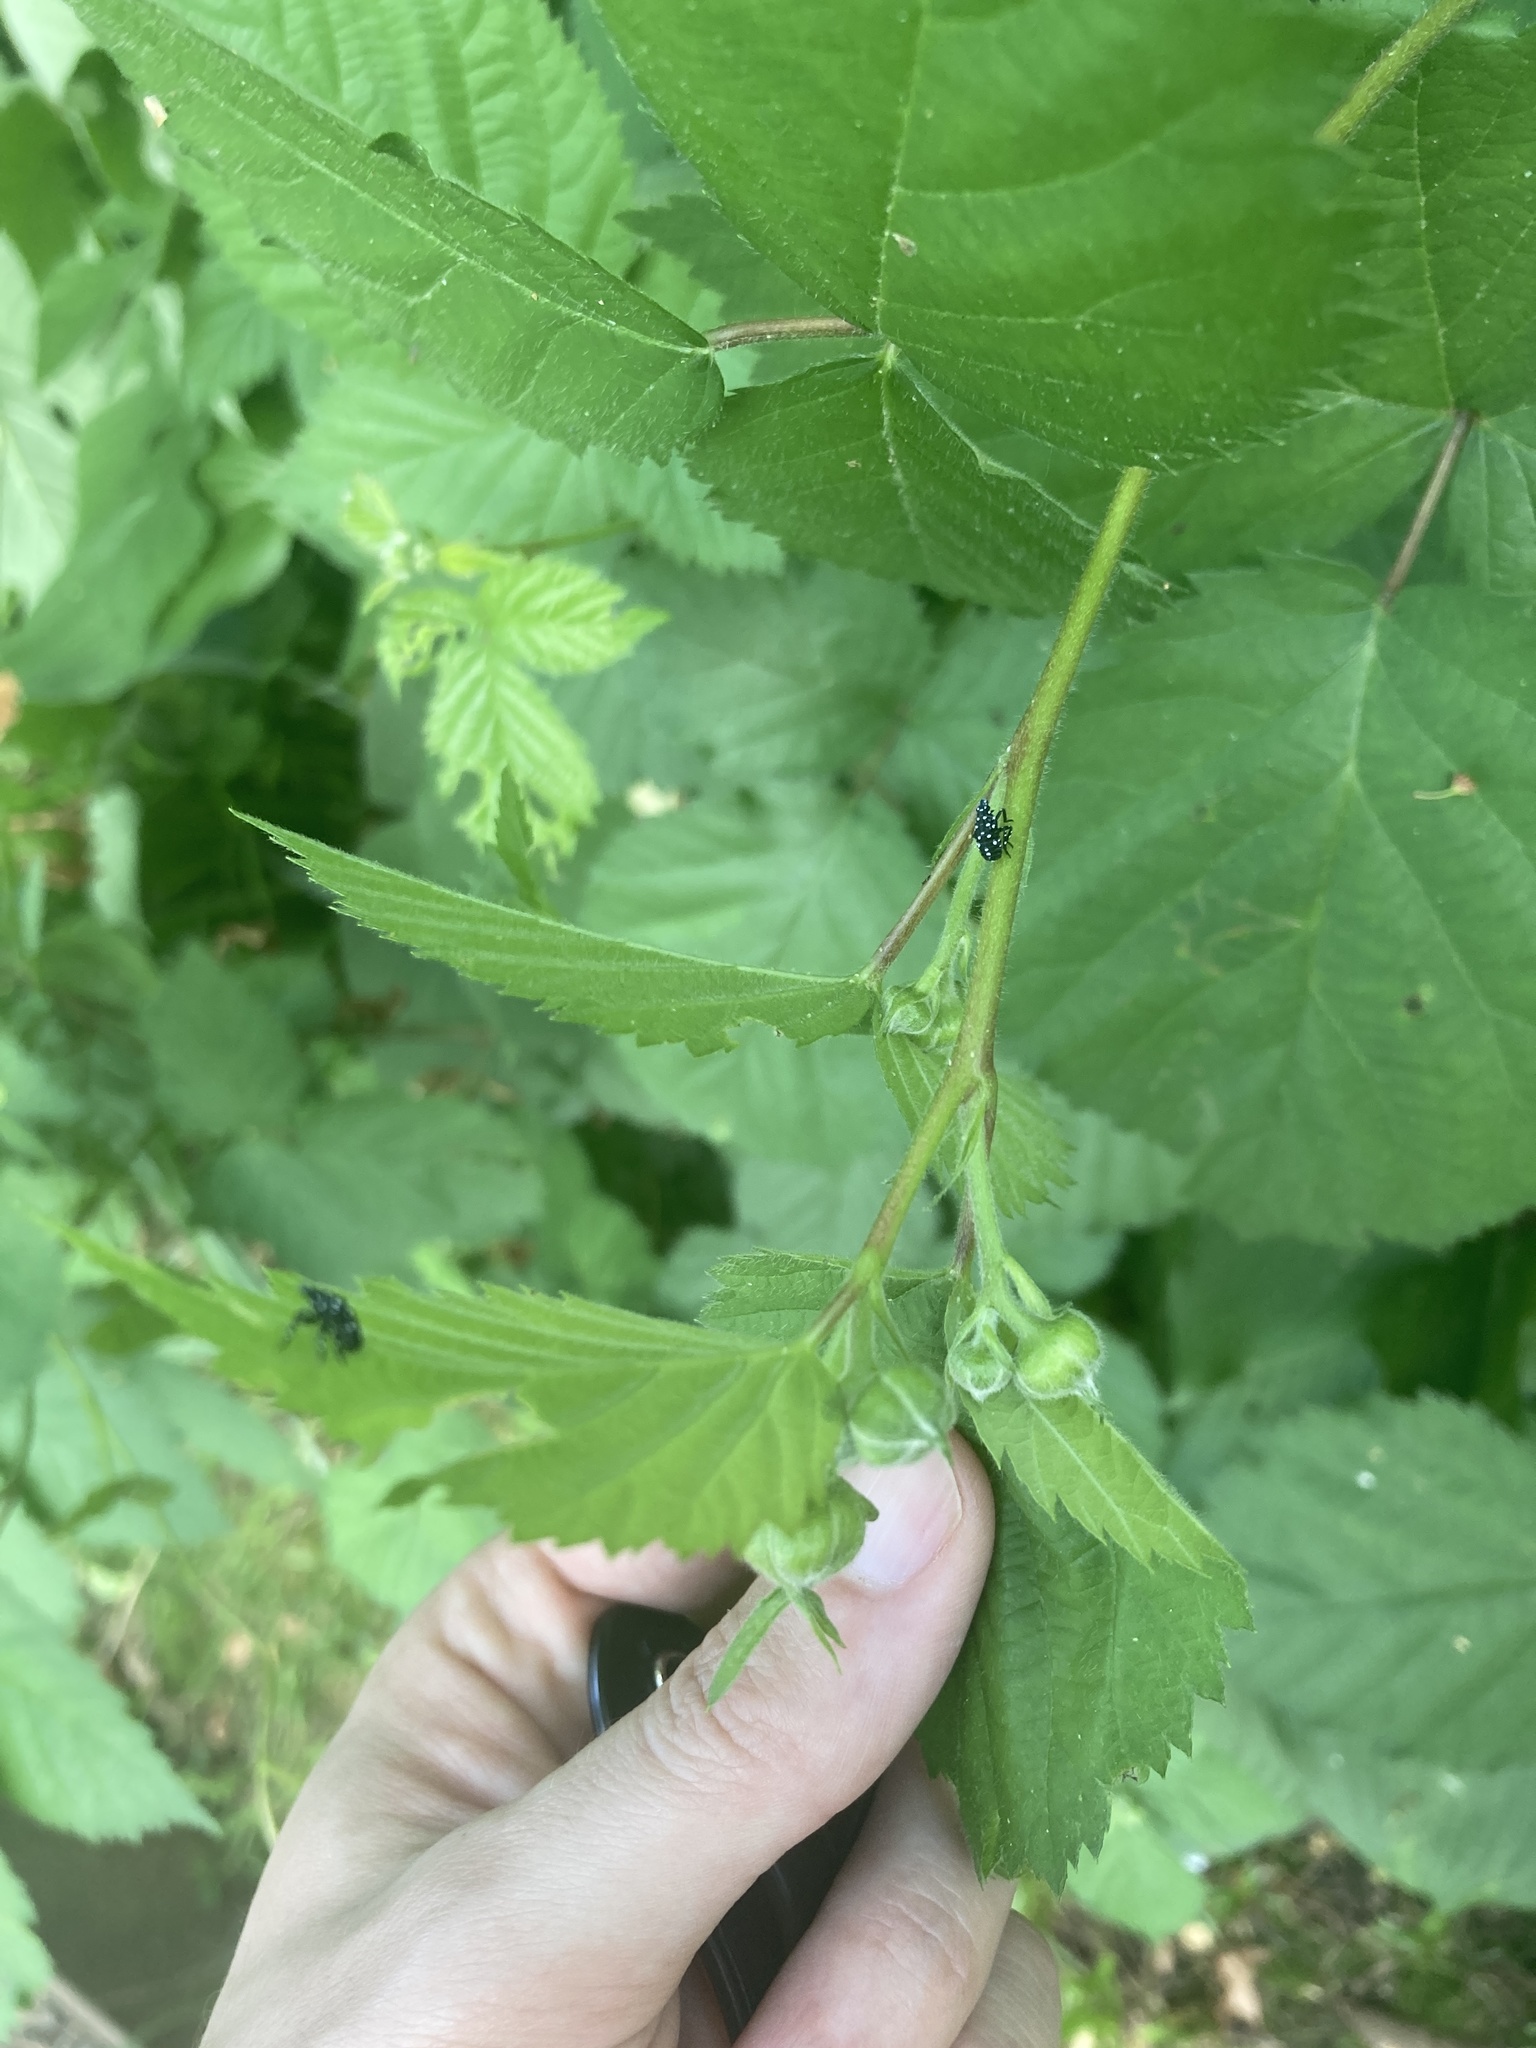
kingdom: Animalia
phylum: Arthropoda
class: Insecta
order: Hemiptera
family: Fulgoridae
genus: Lycorma
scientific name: Lycorma delicatula
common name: Spotted lanternfly
